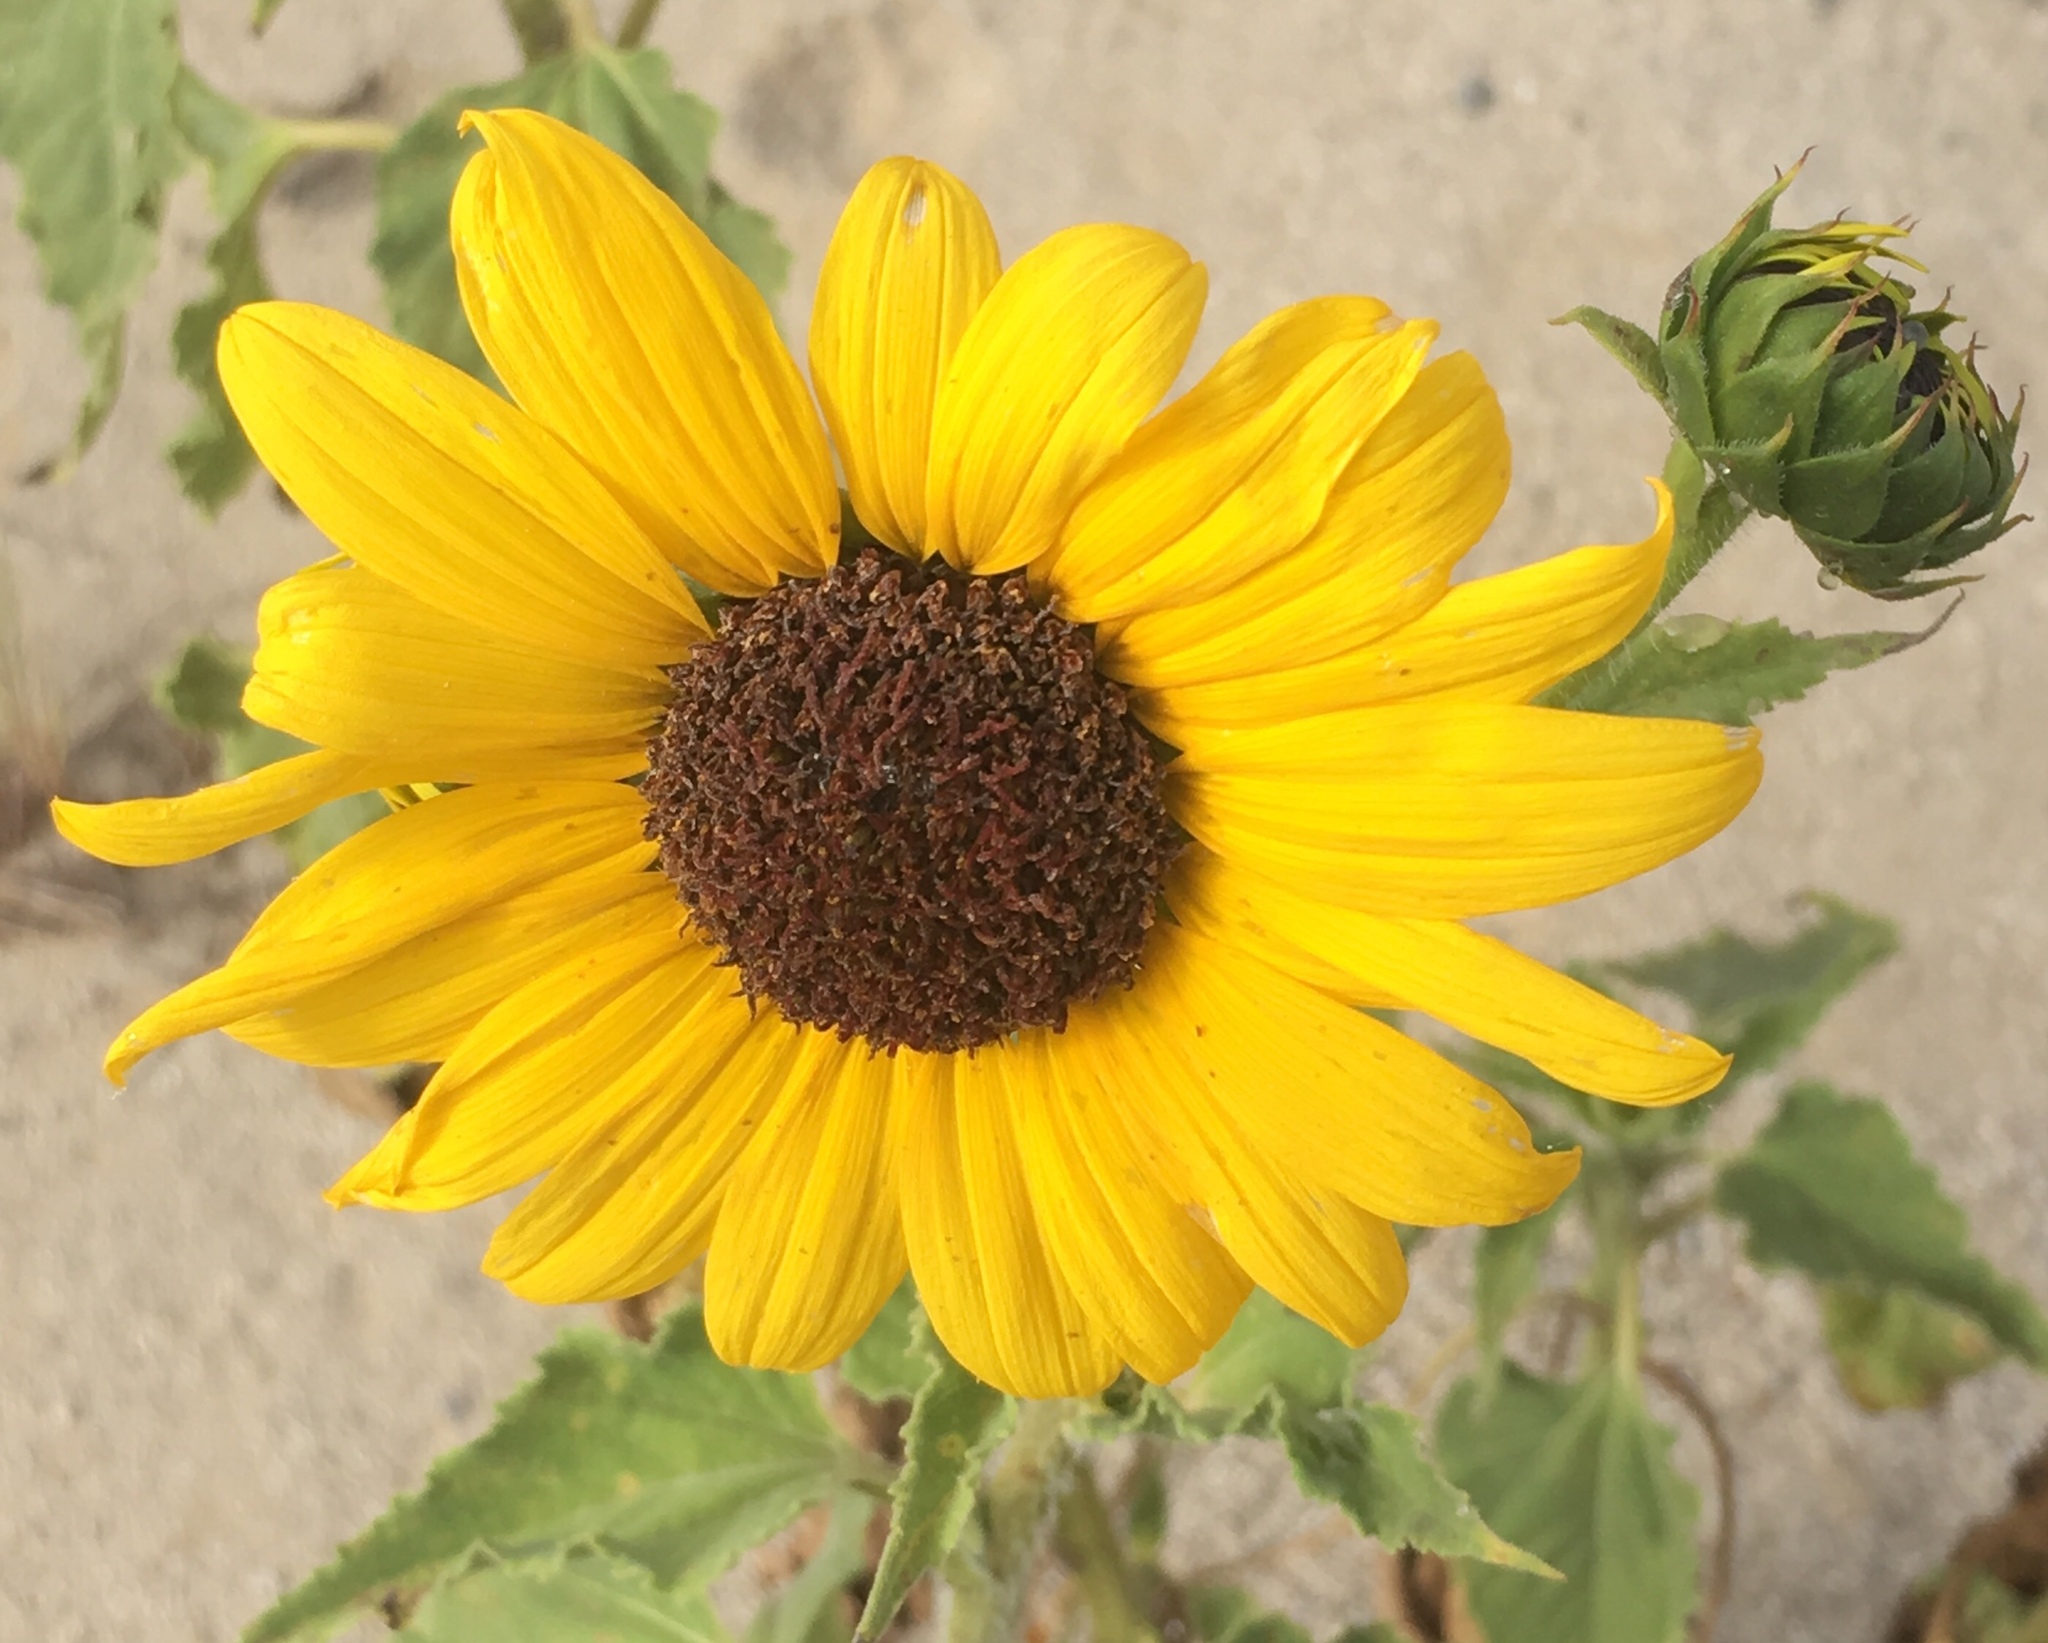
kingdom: Plantae
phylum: Tracheophyta
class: Magnoliopsida
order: Asterales
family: Asteraceae
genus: Helianthus
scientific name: Helianthus annuus
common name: Sunflower
